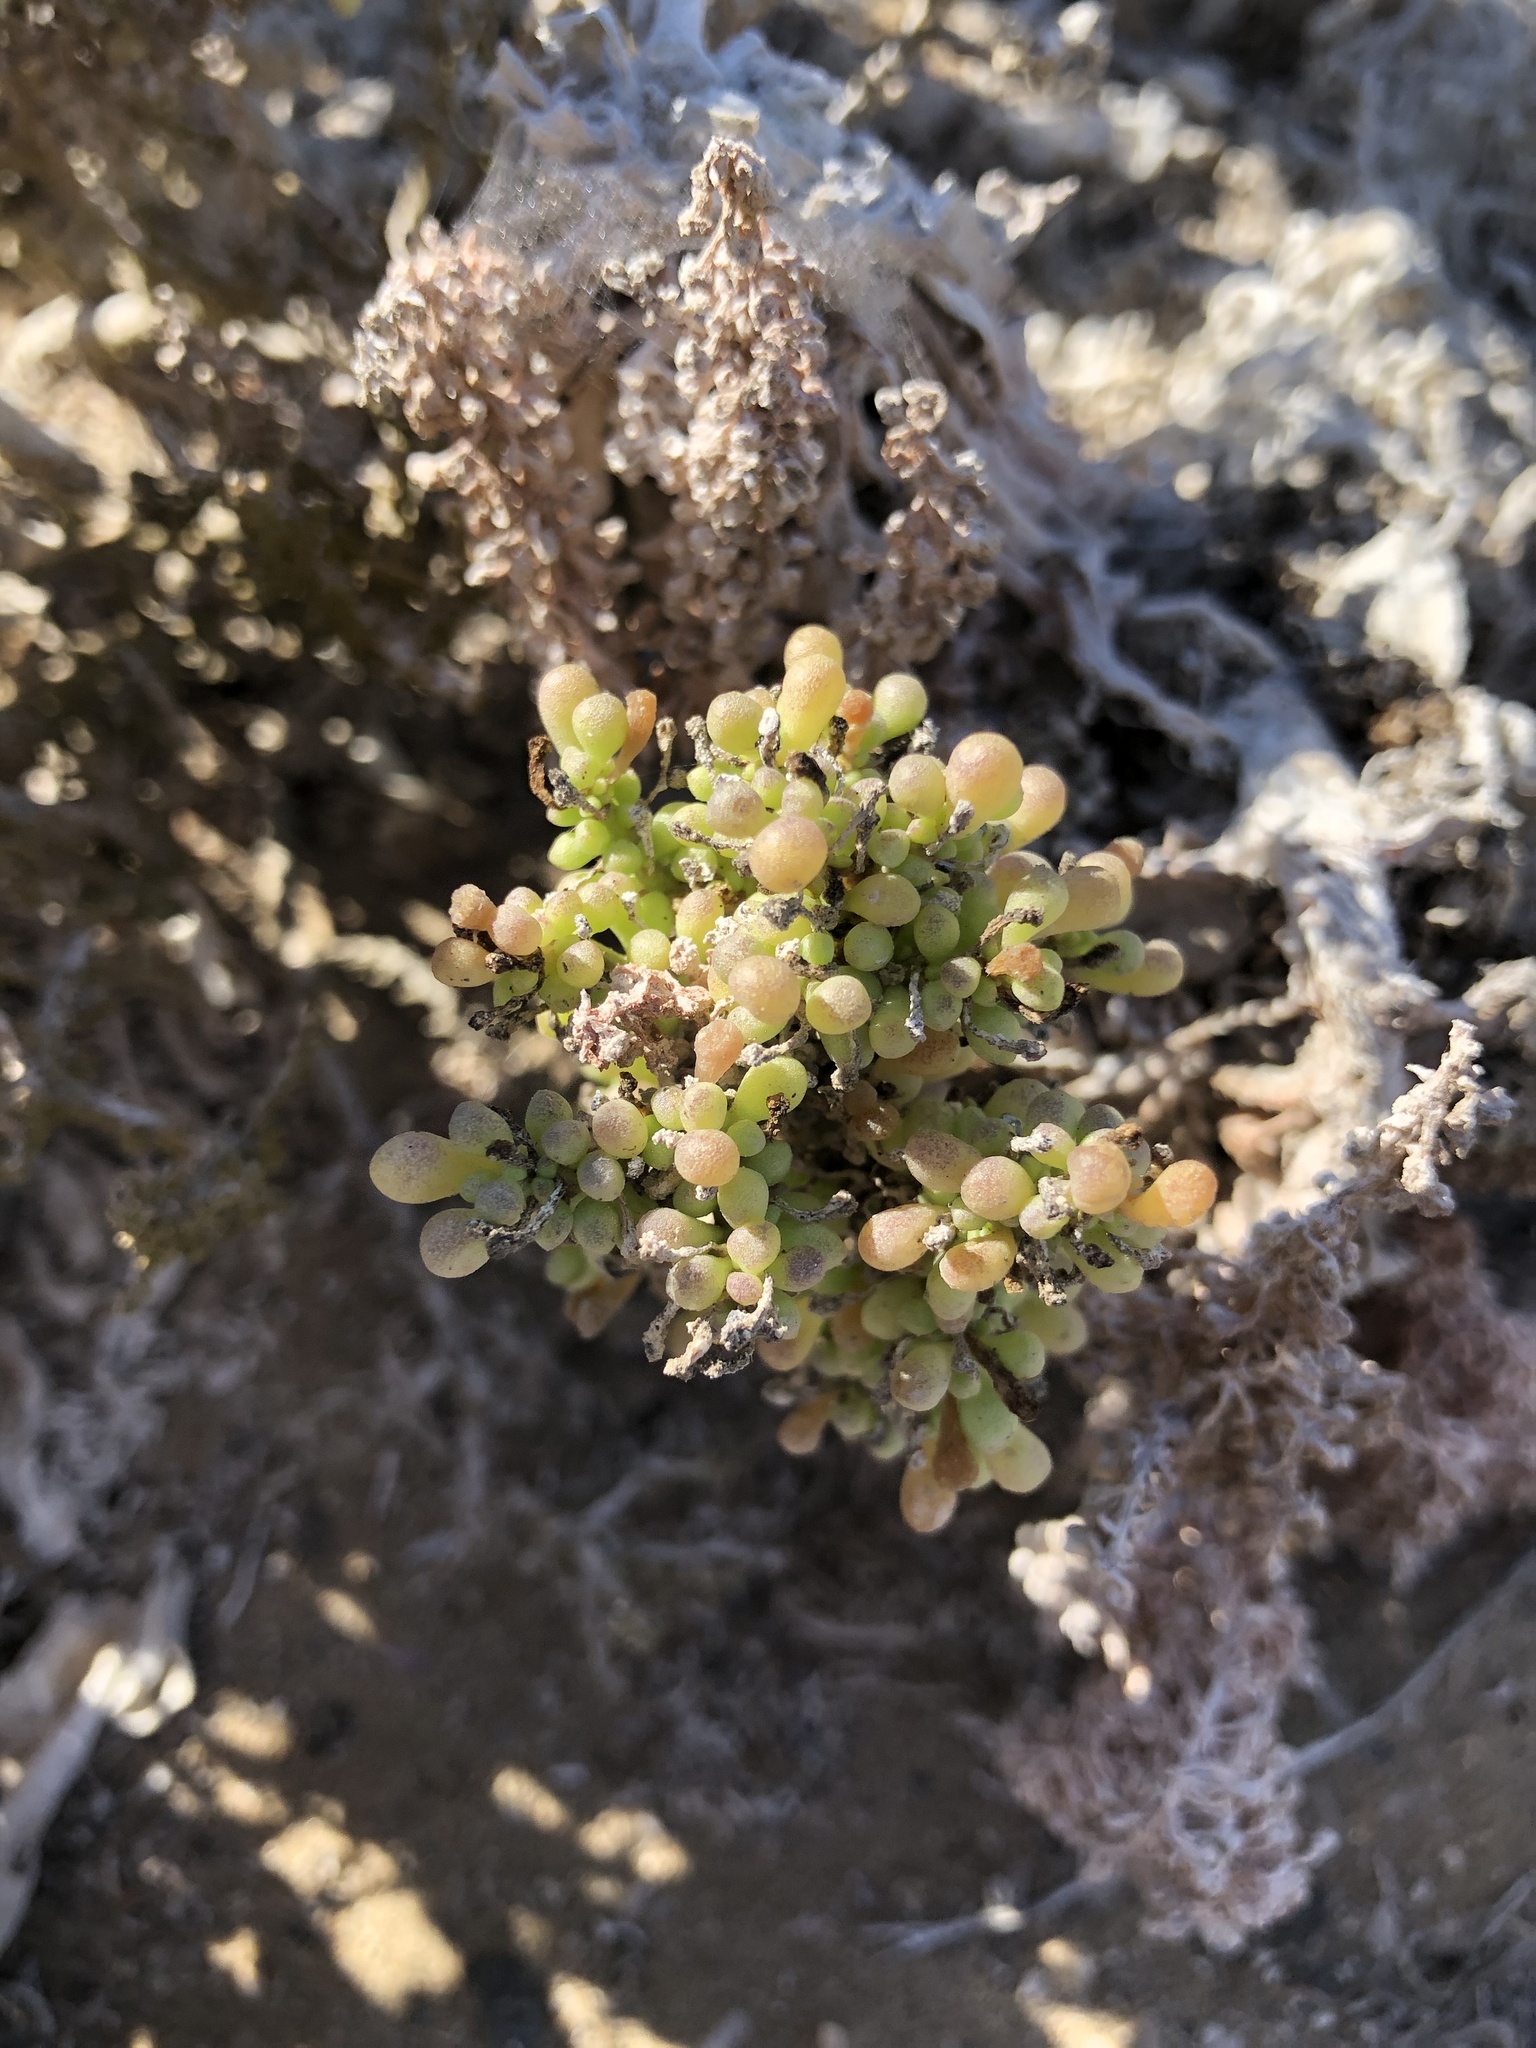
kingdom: Plantae
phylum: Tracheophyta
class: Magnoliopsida
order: Solanales
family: Solanaceae
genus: Nolana
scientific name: Nolana divaricata
